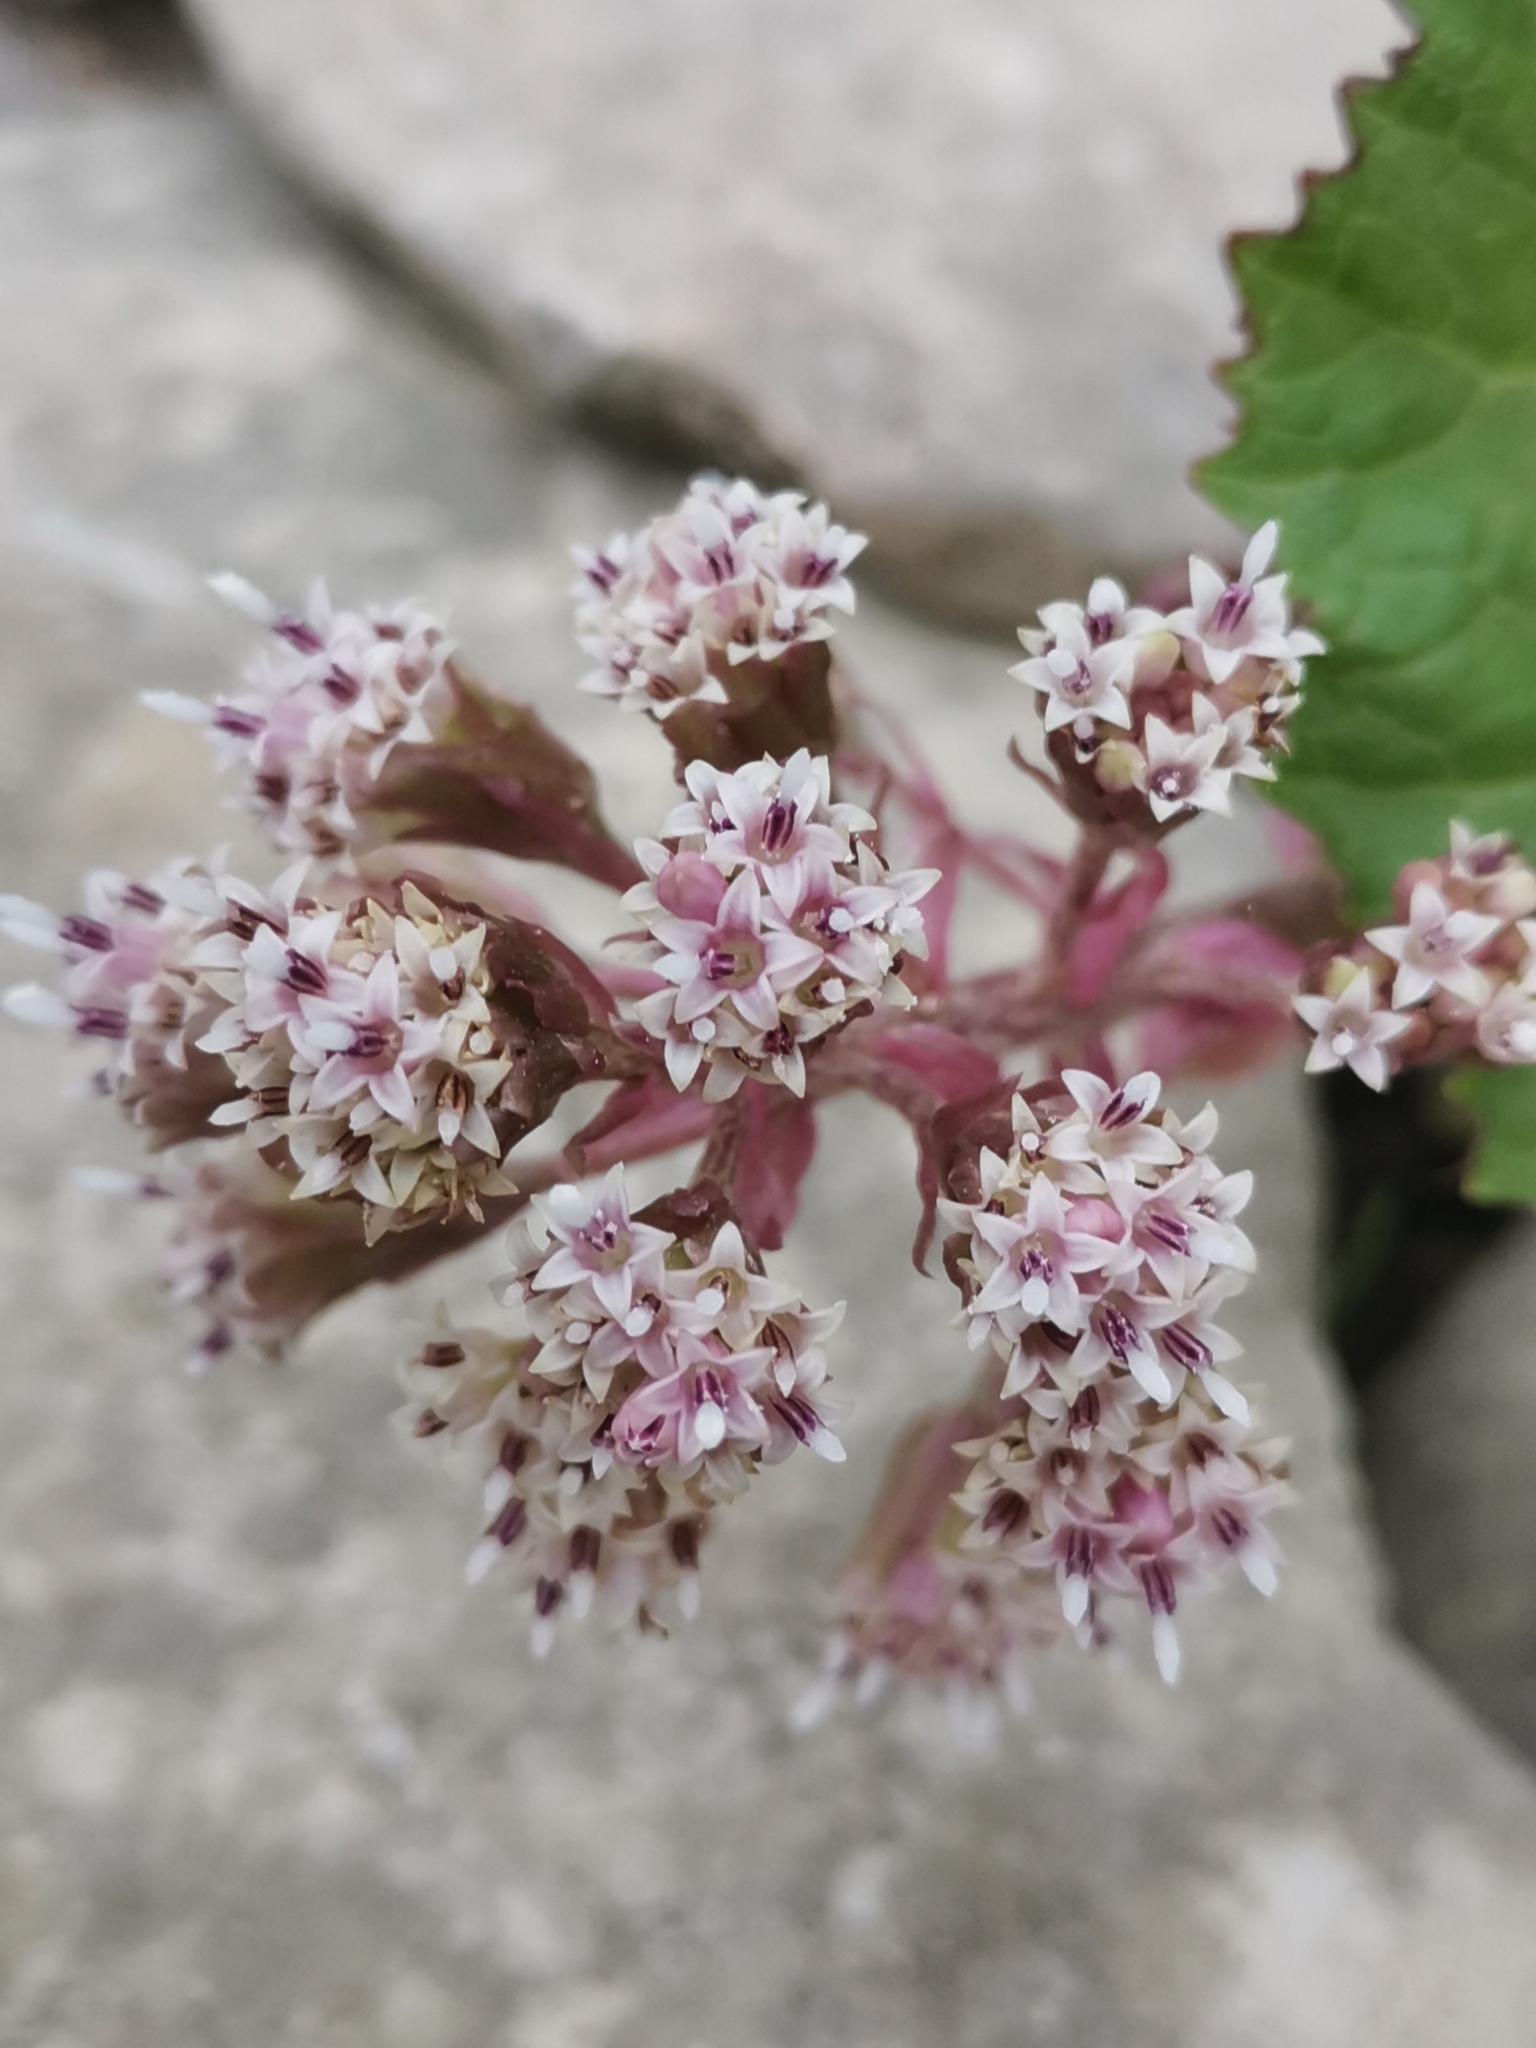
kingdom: Plantae
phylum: Tracheophyta
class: Magnoliopsida
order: Asterales
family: Asteraceae
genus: Petasites
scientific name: Petasites hybridus
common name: Butterbur
